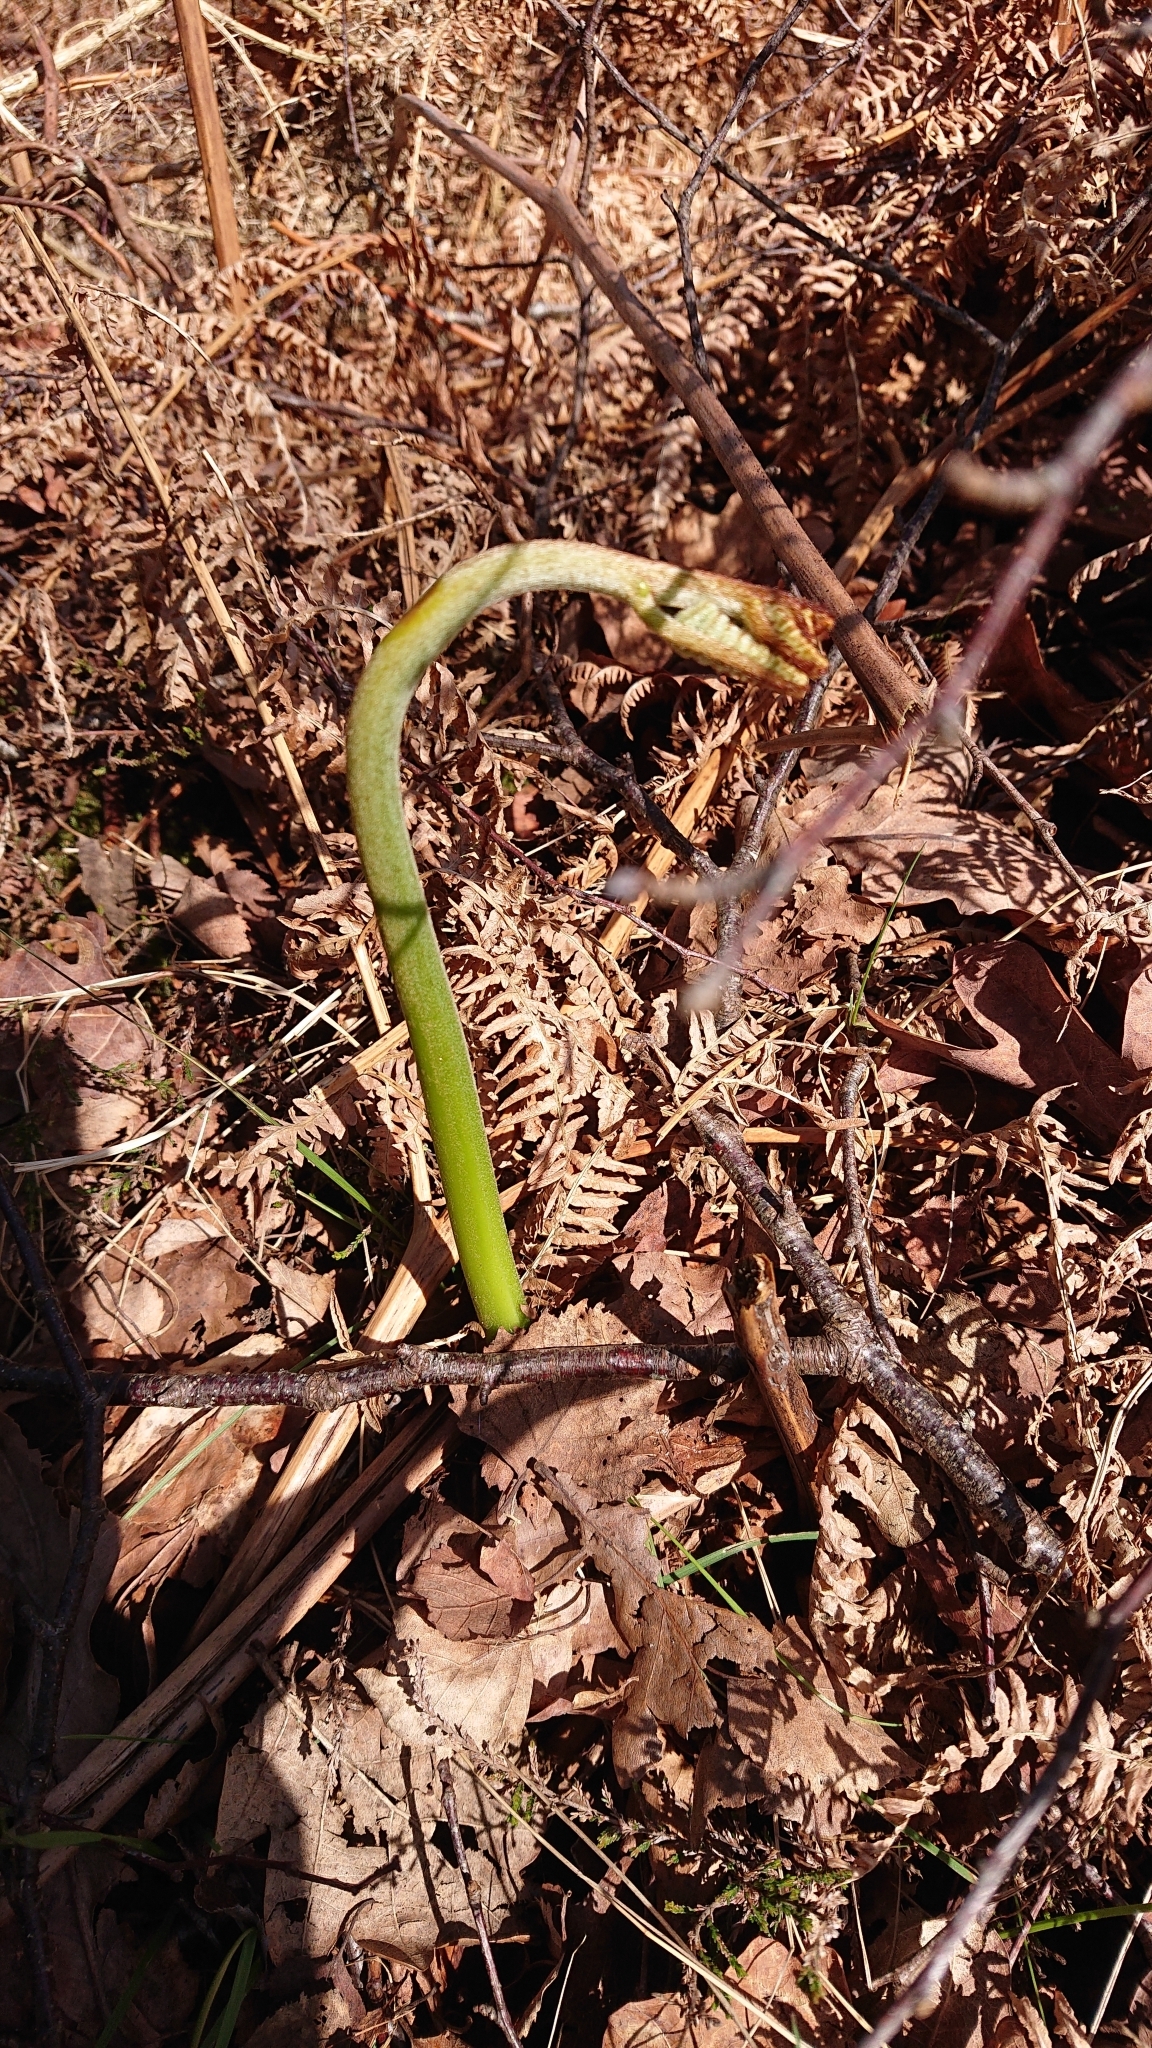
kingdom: Plantae
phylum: Tracheophyta
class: Polypodiopsida
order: Polypodiales
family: Dennstaedtiaceae
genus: Pteridium
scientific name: Pteridium aquilinum
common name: Bracken
